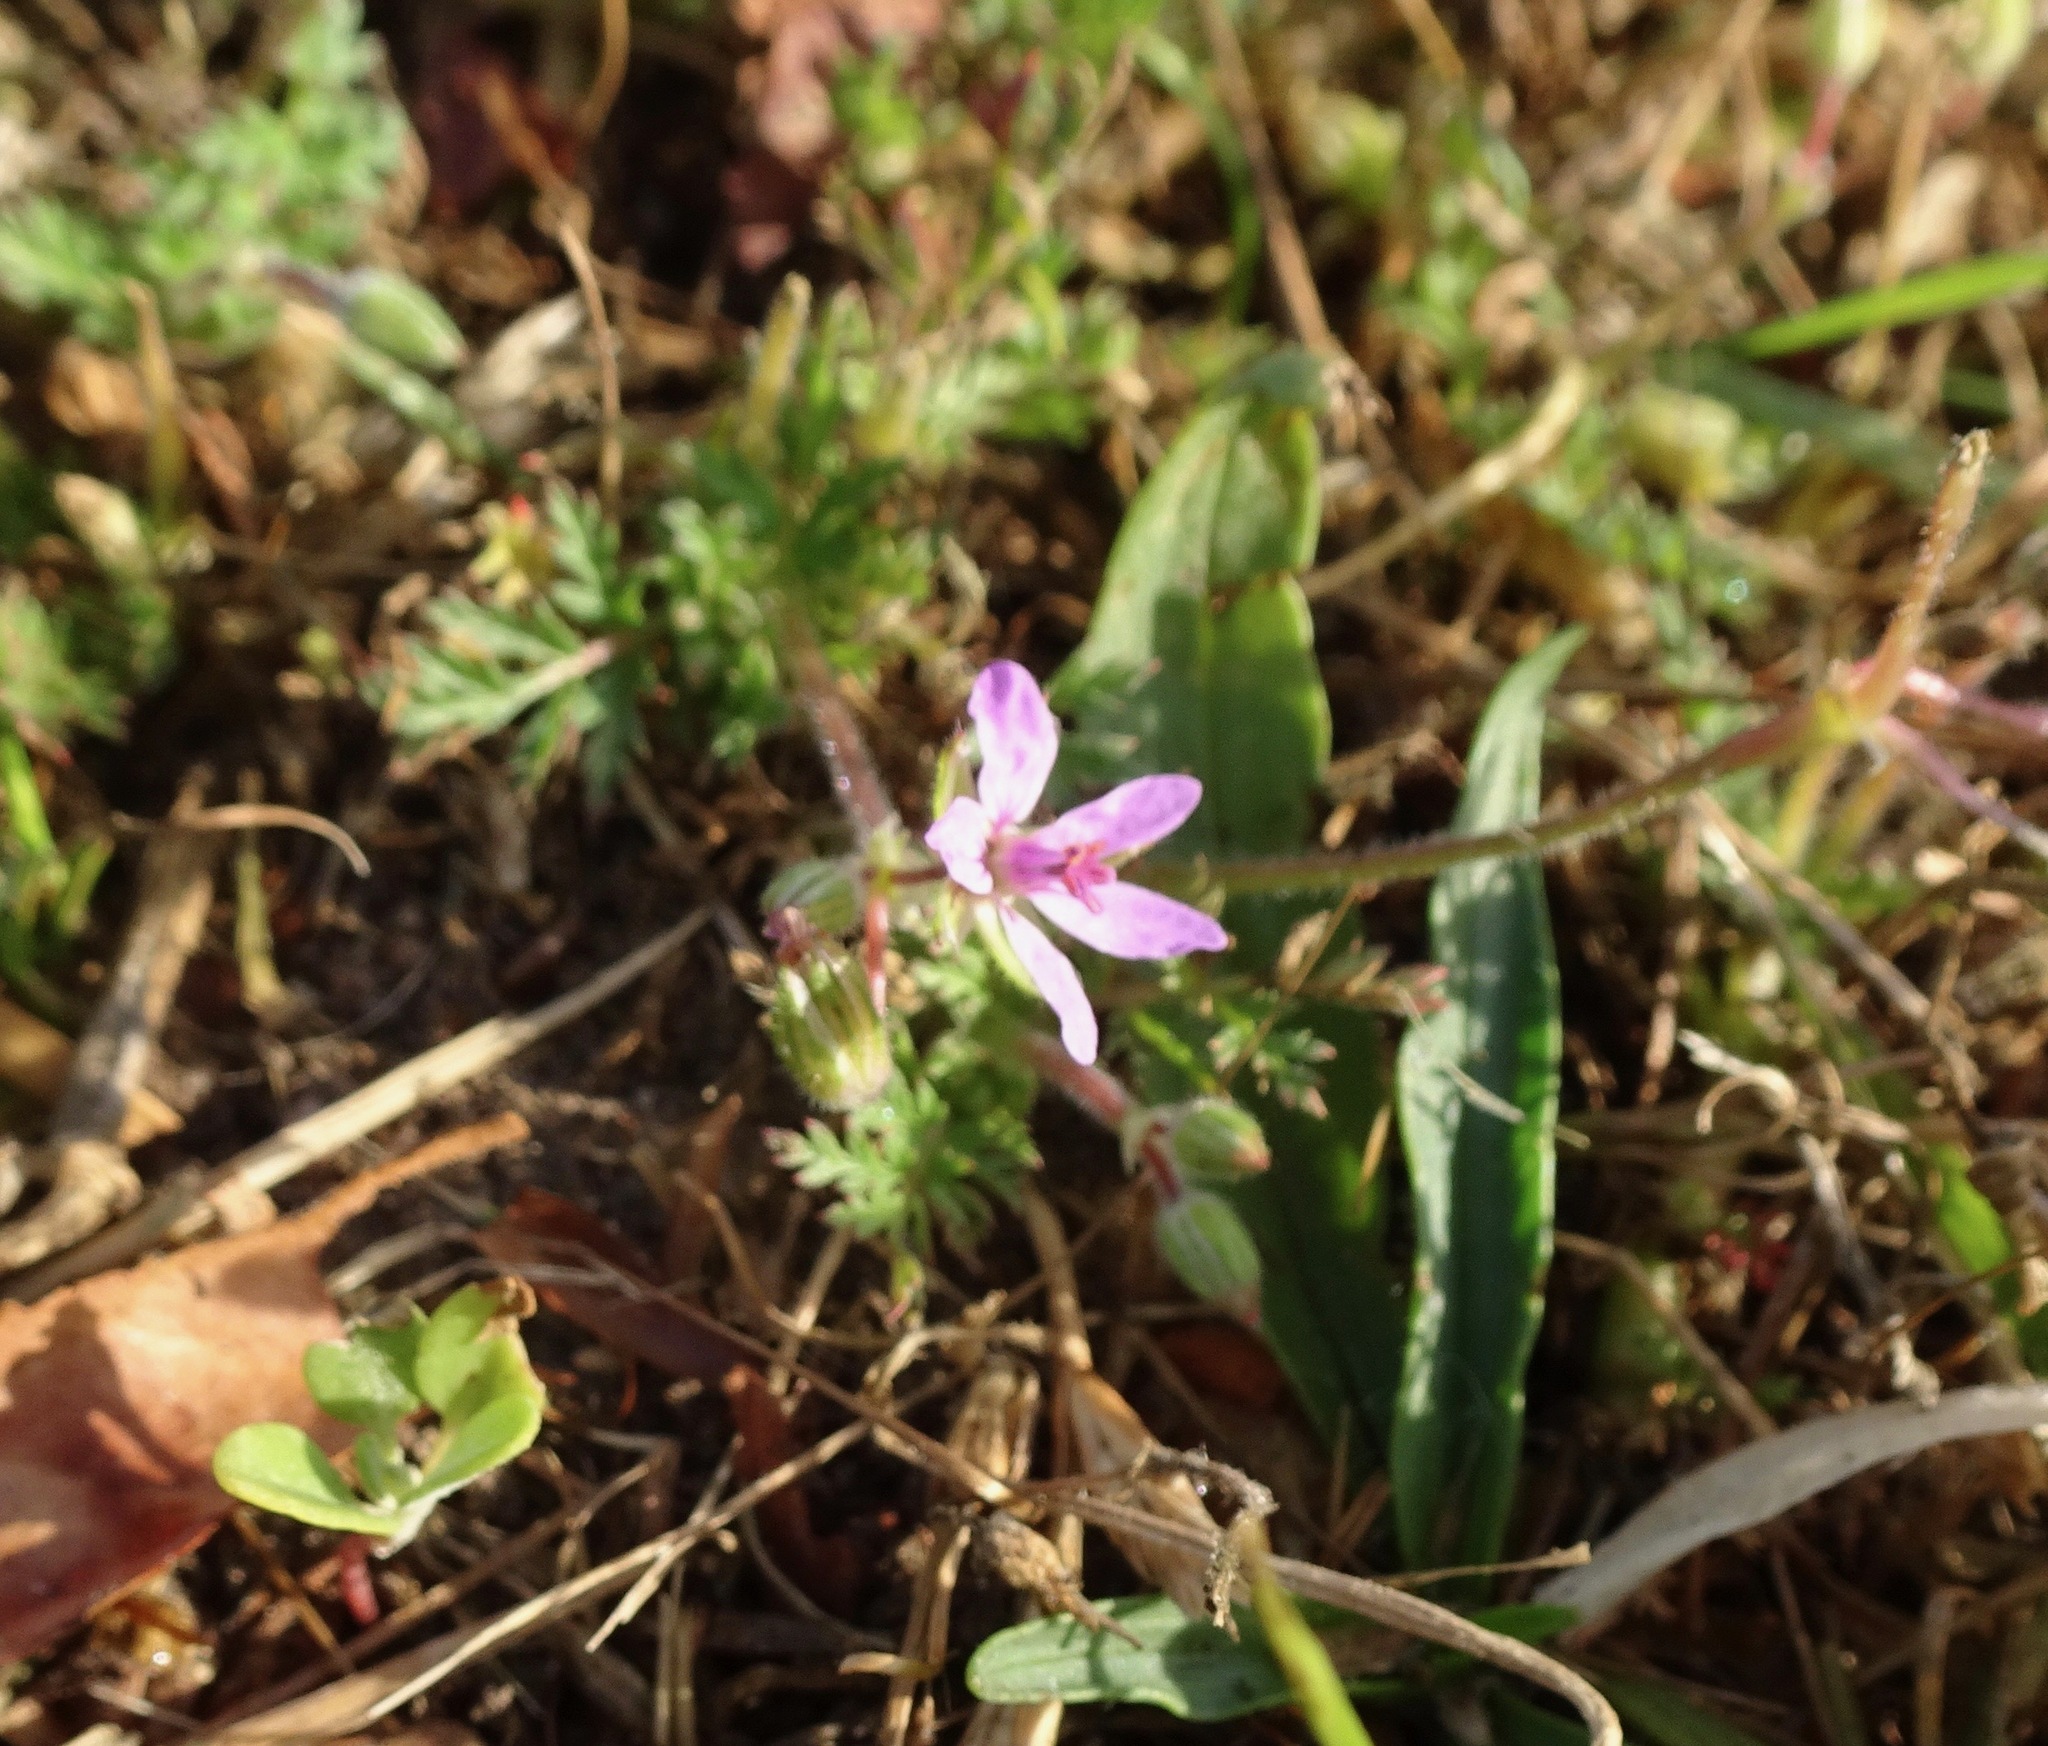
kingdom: Plantae
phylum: Tracheophyta
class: Magnoliopsida
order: Geraniales
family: Geraniaceae
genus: Erodium
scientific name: Erodium cicutarium
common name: Common stork's-bill
